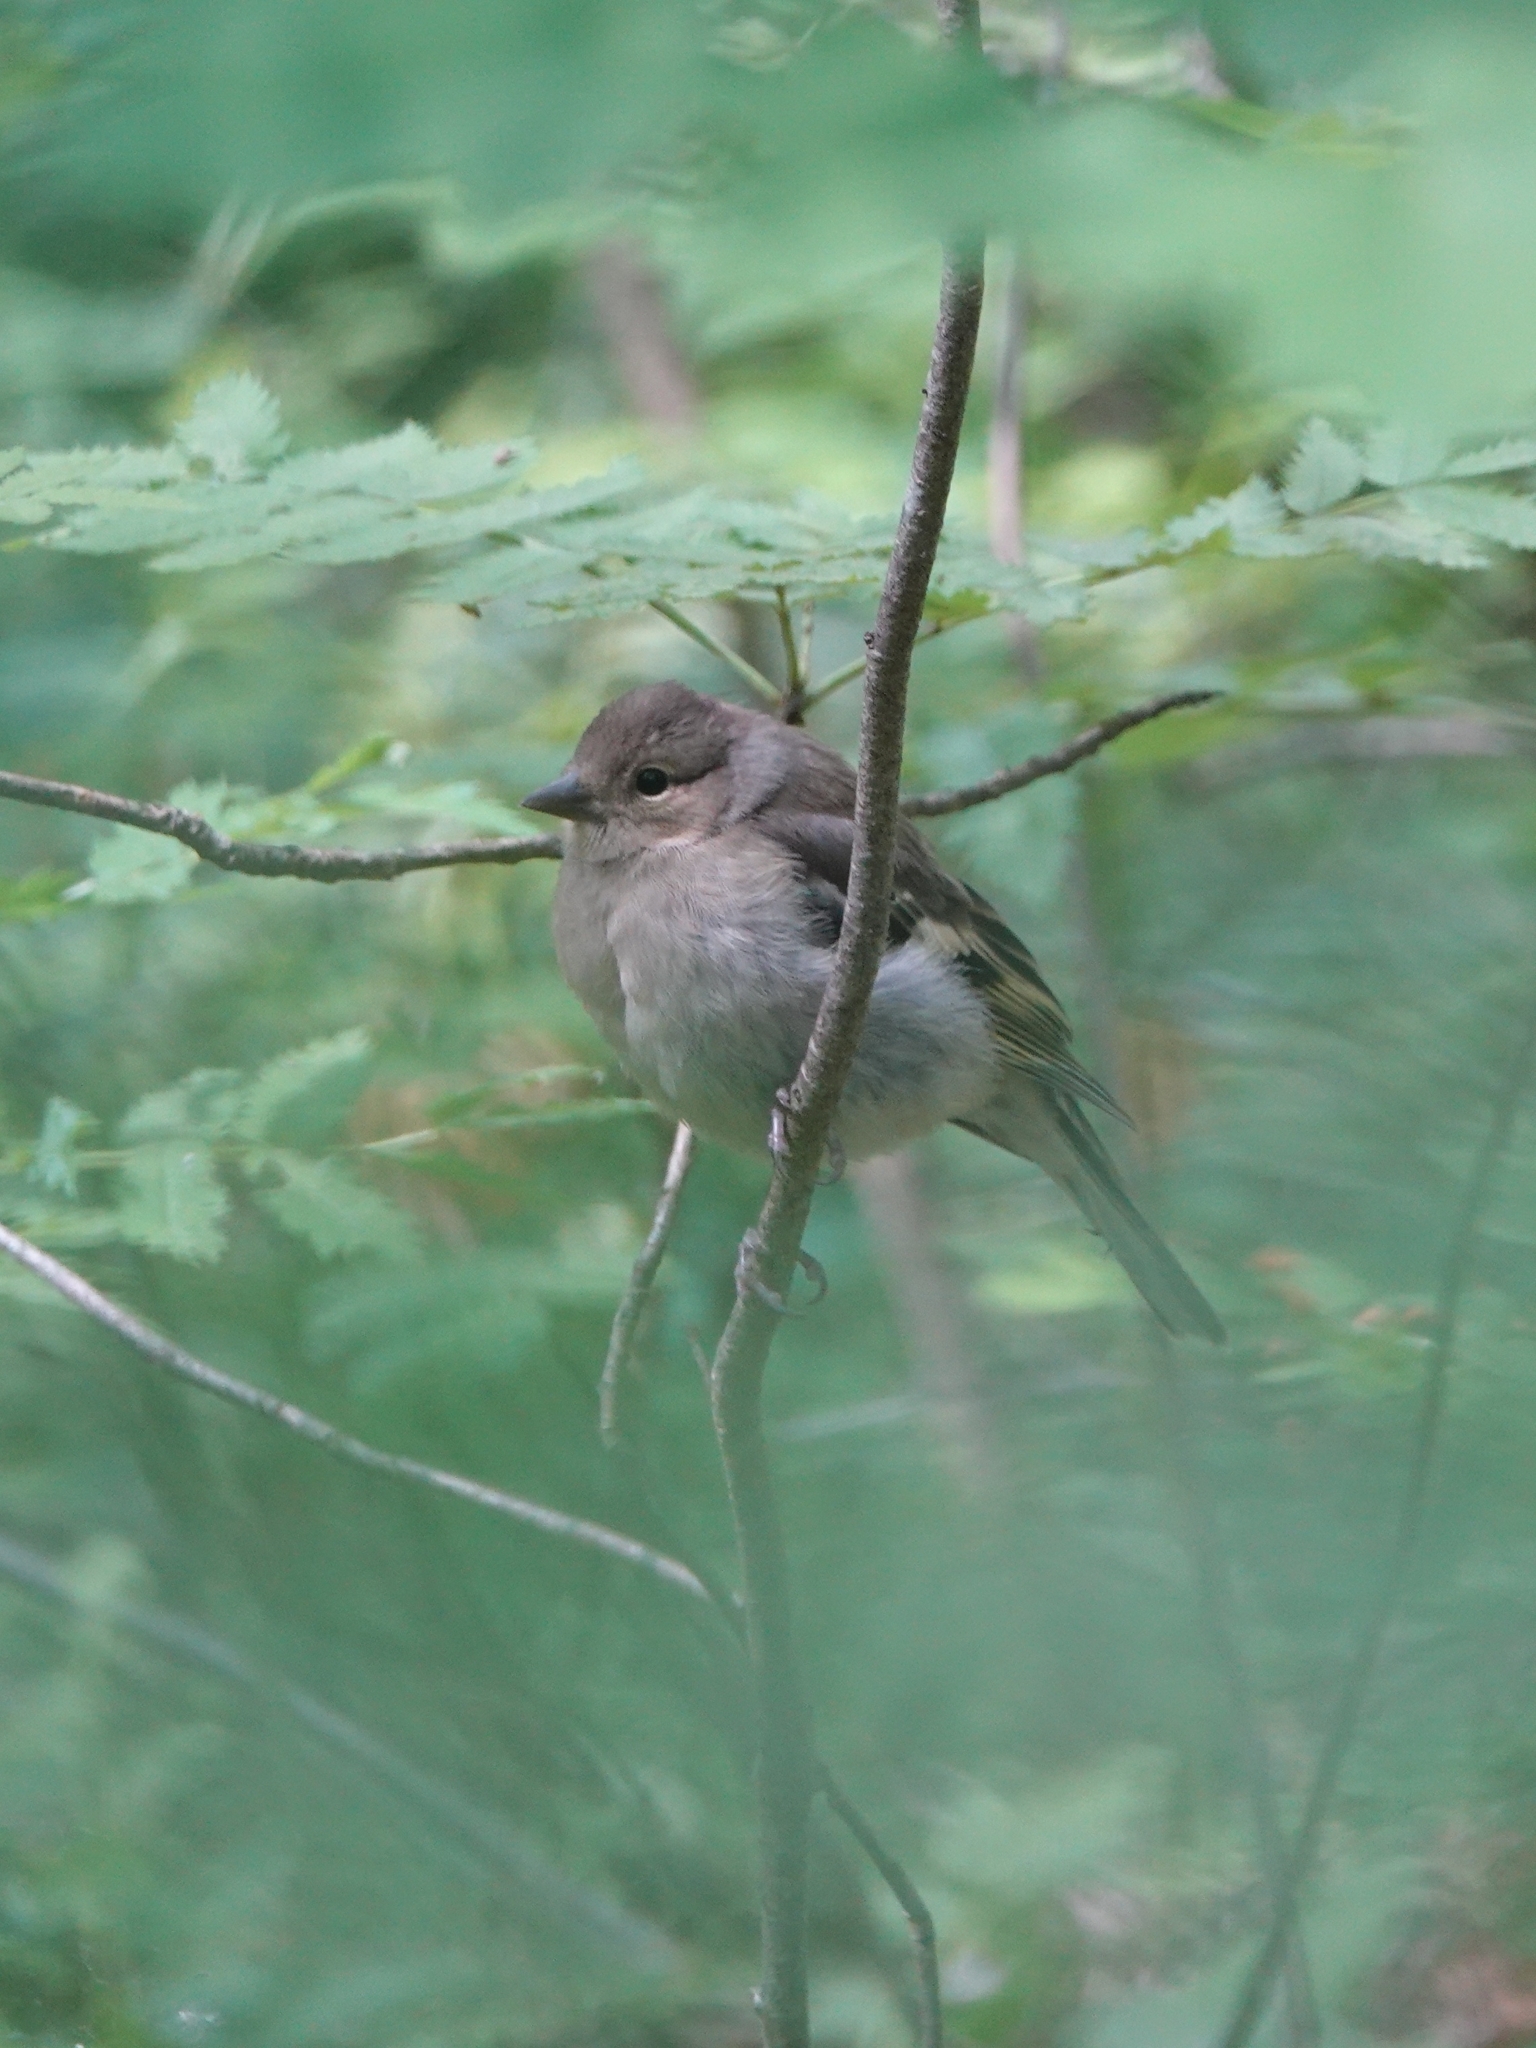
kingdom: Animalia
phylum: Chordata
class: Aves
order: Passeriformes
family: Fringillidae
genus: Fringilla
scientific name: Fringilla coelebs
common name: Common chaffinch
